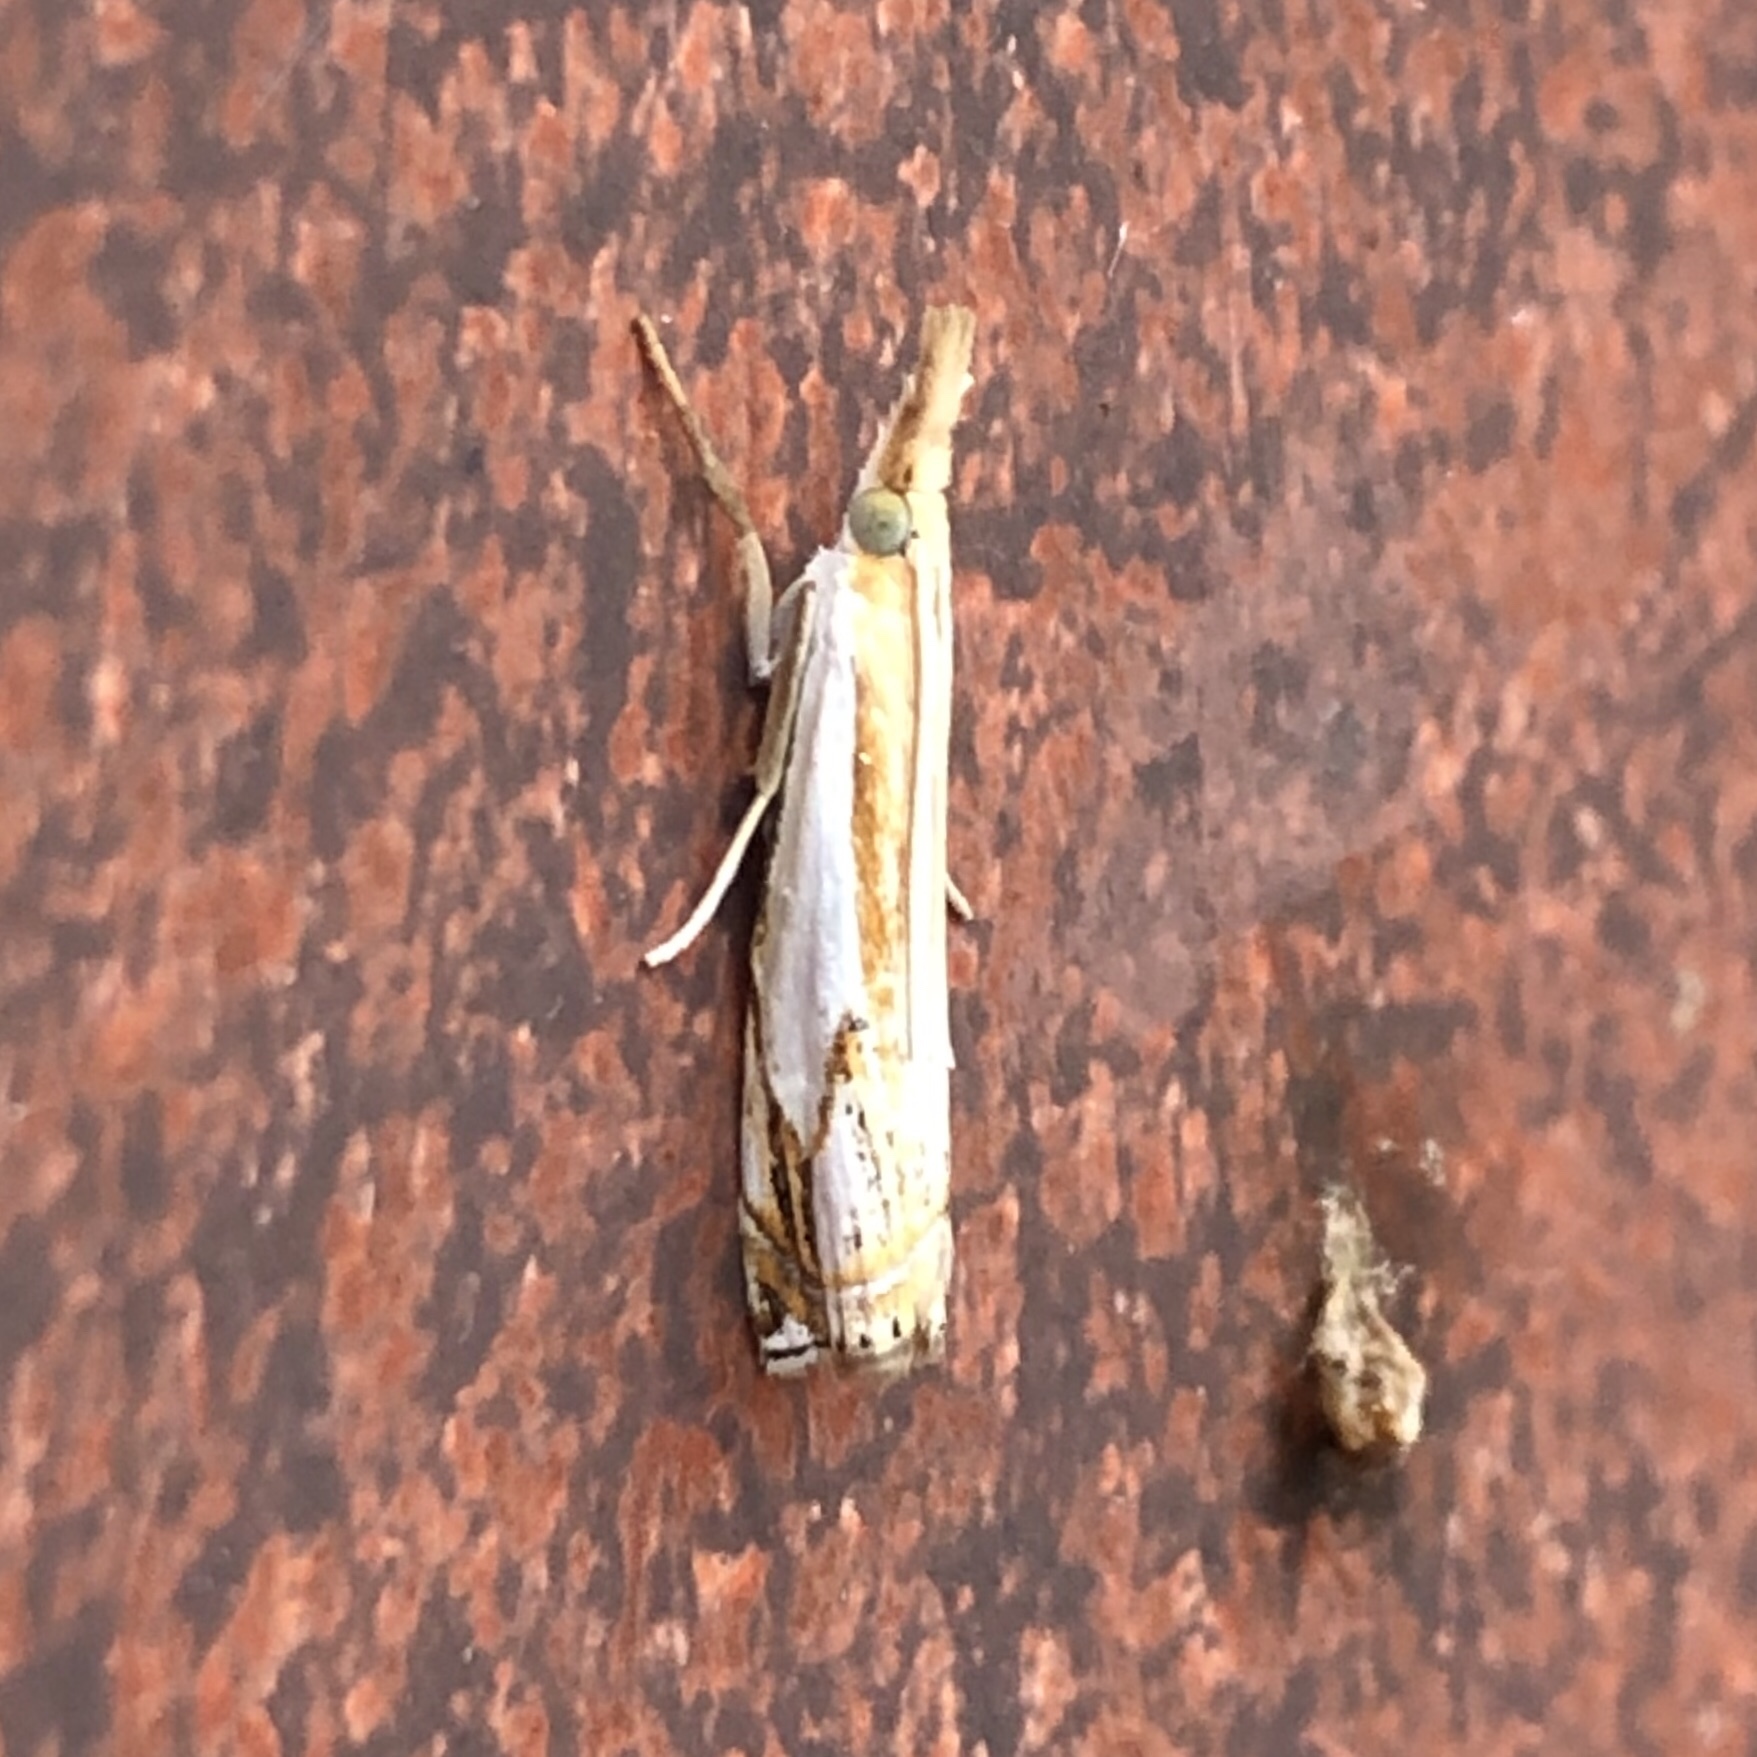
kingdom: Animalia
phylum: Arthropoda
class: Insecta
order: Lepidoptera
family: Crambidae
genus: Crambus
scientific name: Crambus agitatellus
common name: Double-banded grass-veneer
